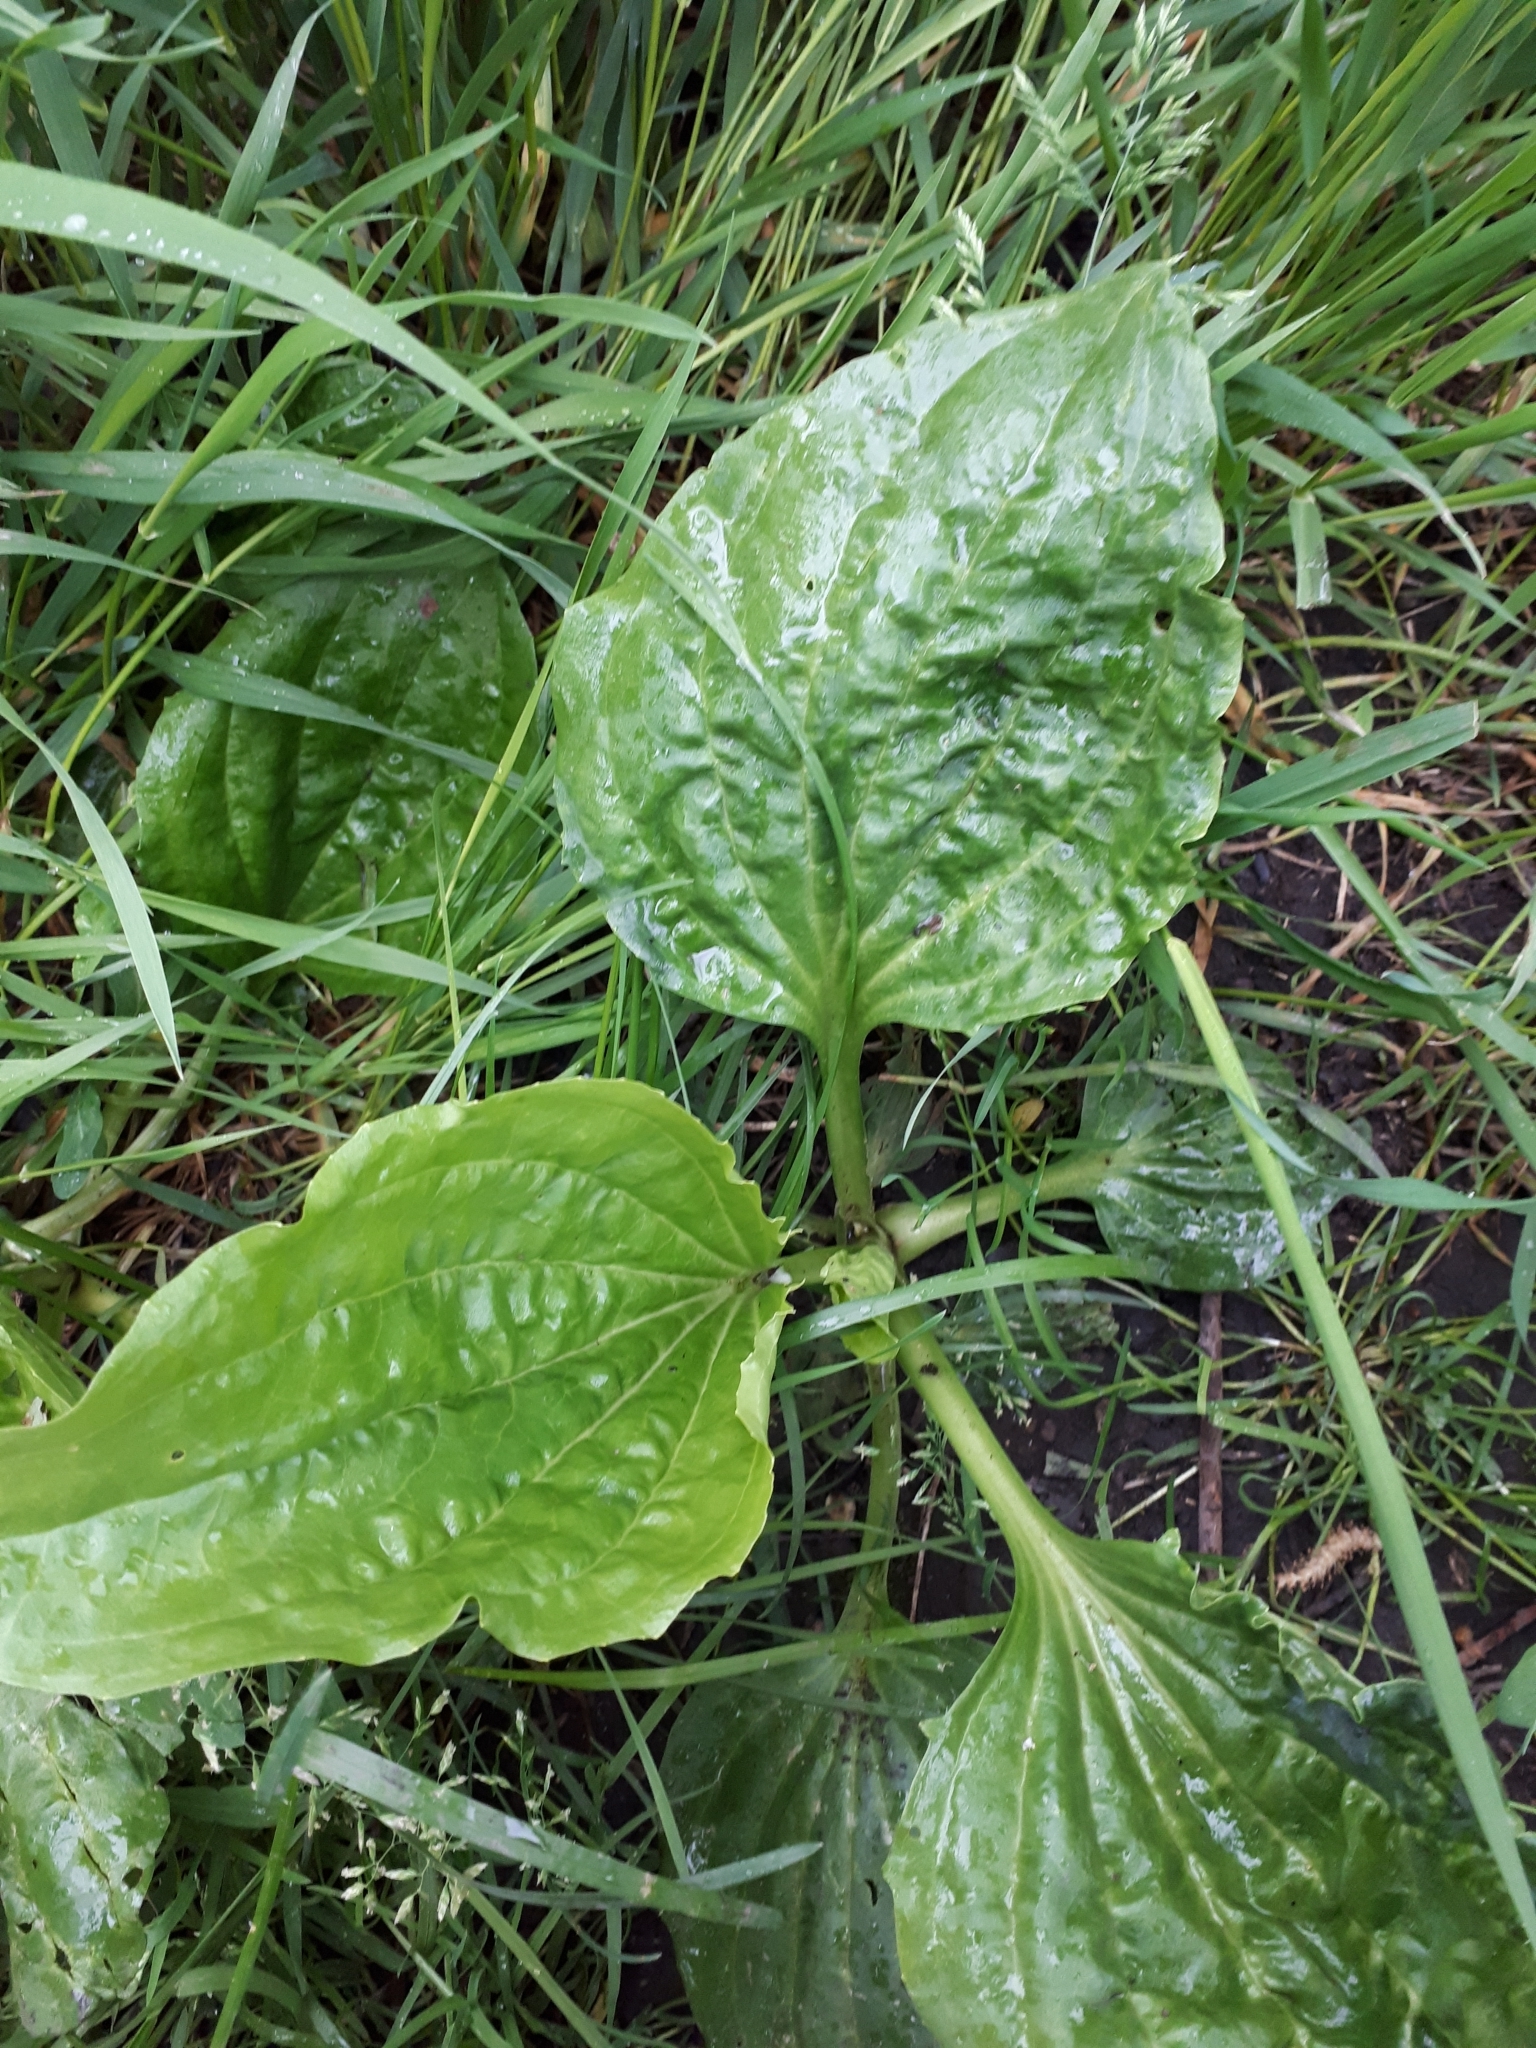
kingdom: Plantae
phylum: Tracheophyta
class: Magnoliopsida
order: Lamiales
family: Plantaginaceae
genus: Plantago
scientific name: Plantago major
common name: Common plantain
